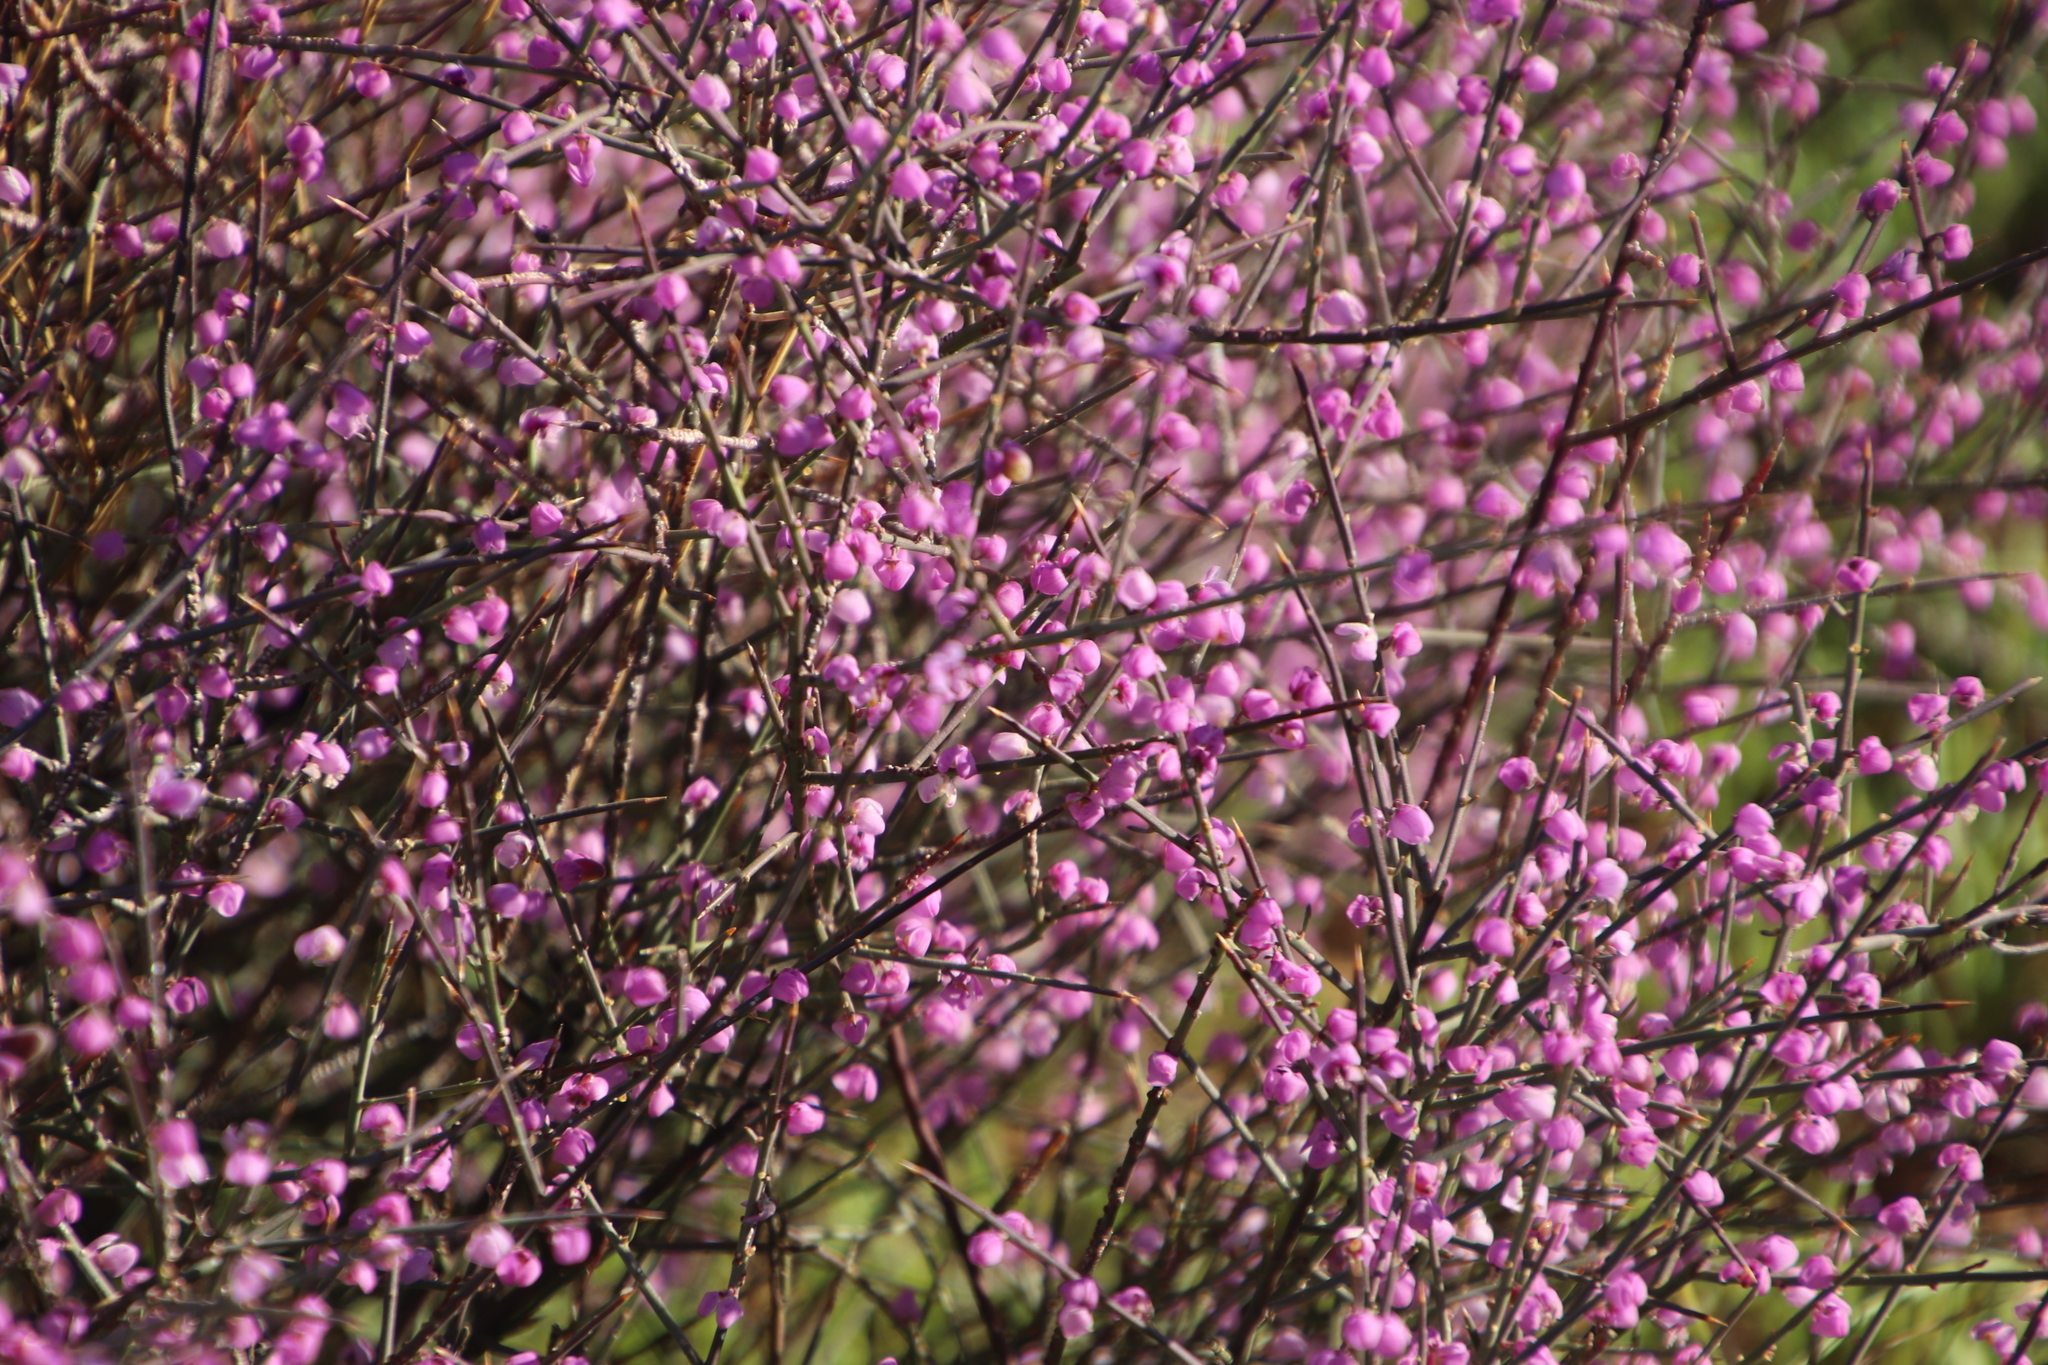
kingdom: Plantae
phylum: Tracheophyta
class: Magnoliopsida
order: Fabales
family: Polygalaceae
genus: Muraltia
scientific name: Muraltia spinosa
